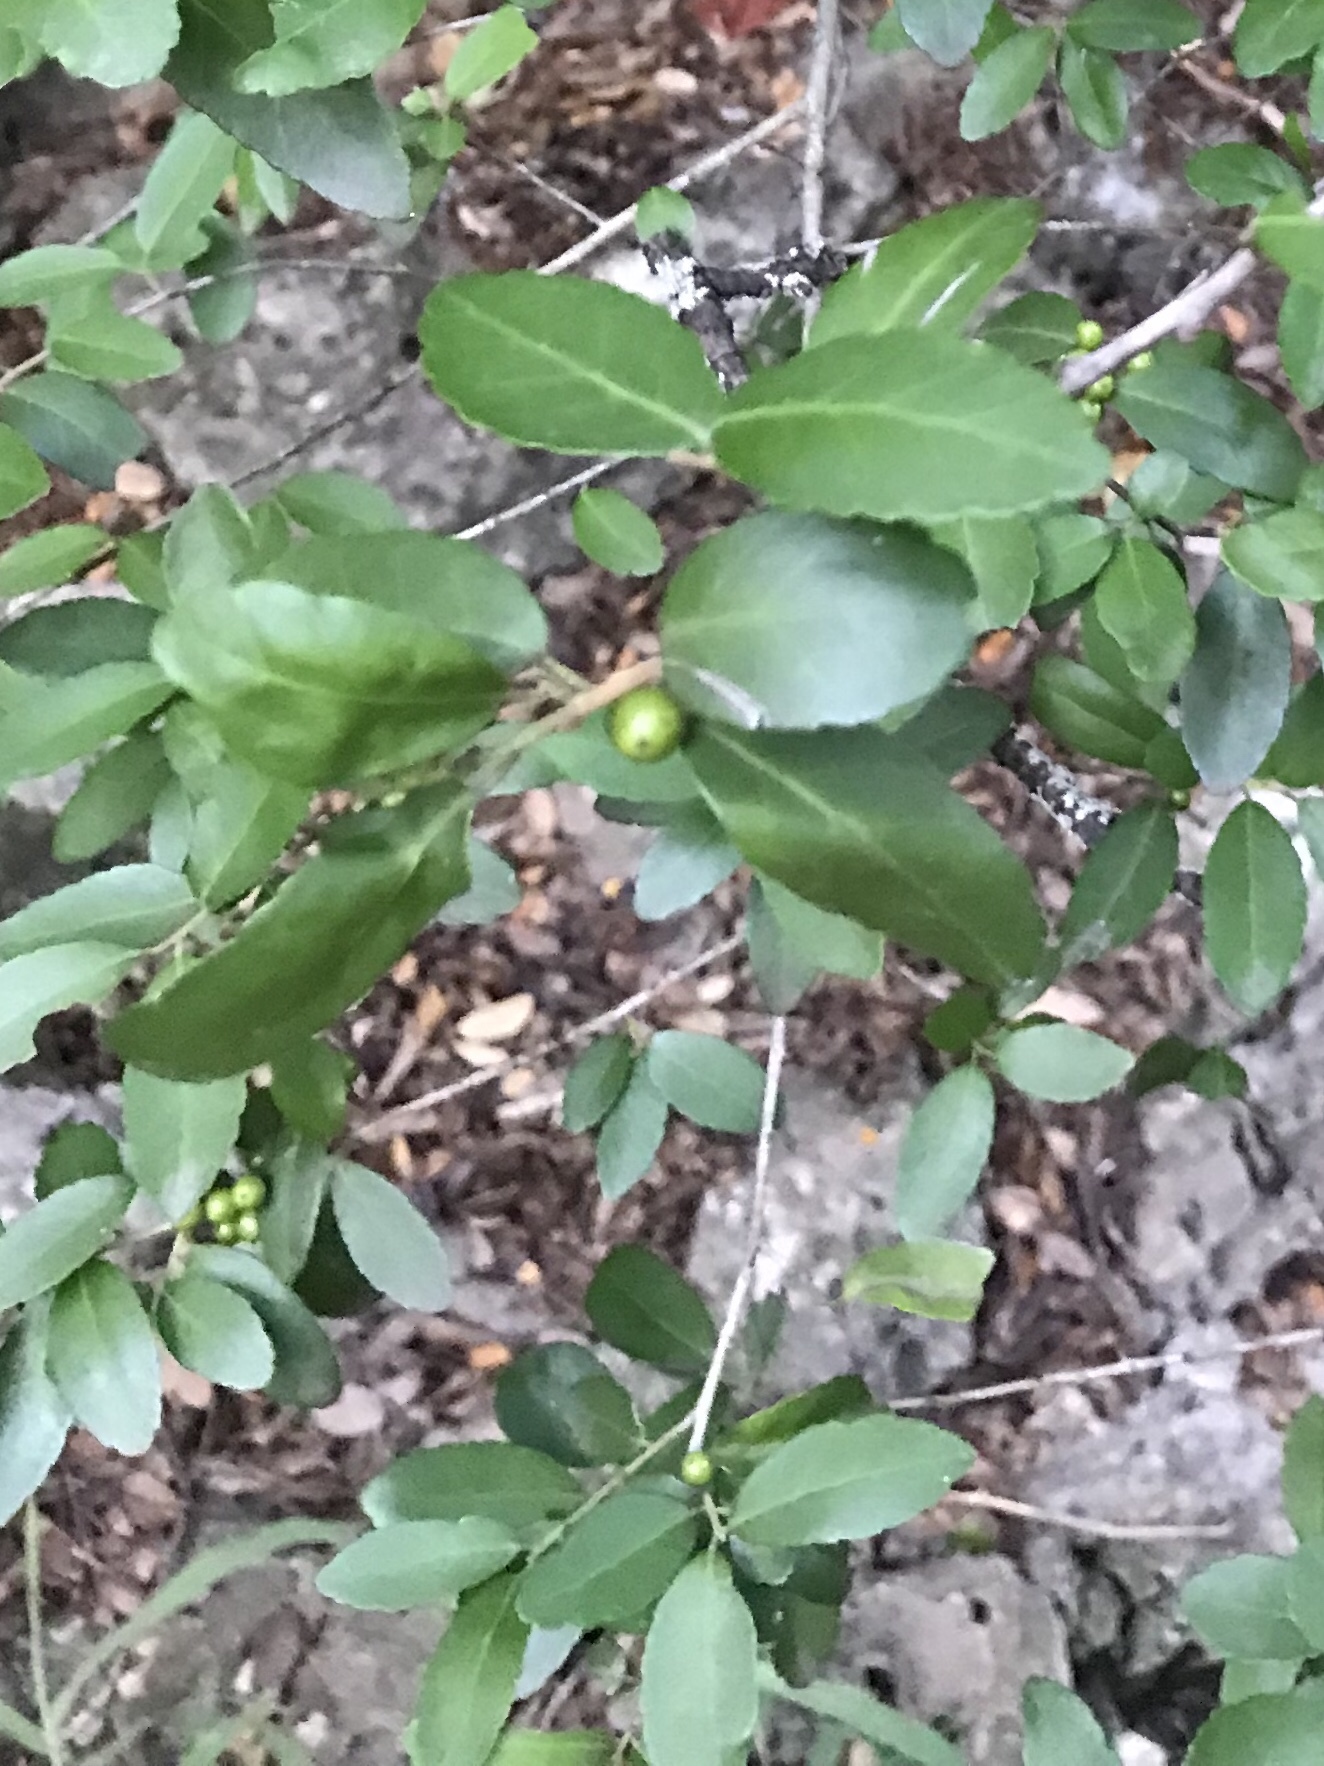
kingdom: Plantae
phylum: Tracheophyta
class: Magnoliopsida
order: Aquifoliales
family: Aquifoliaceae
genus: Ilex
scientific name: Ilex vomitoria
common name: Yaupon holly
